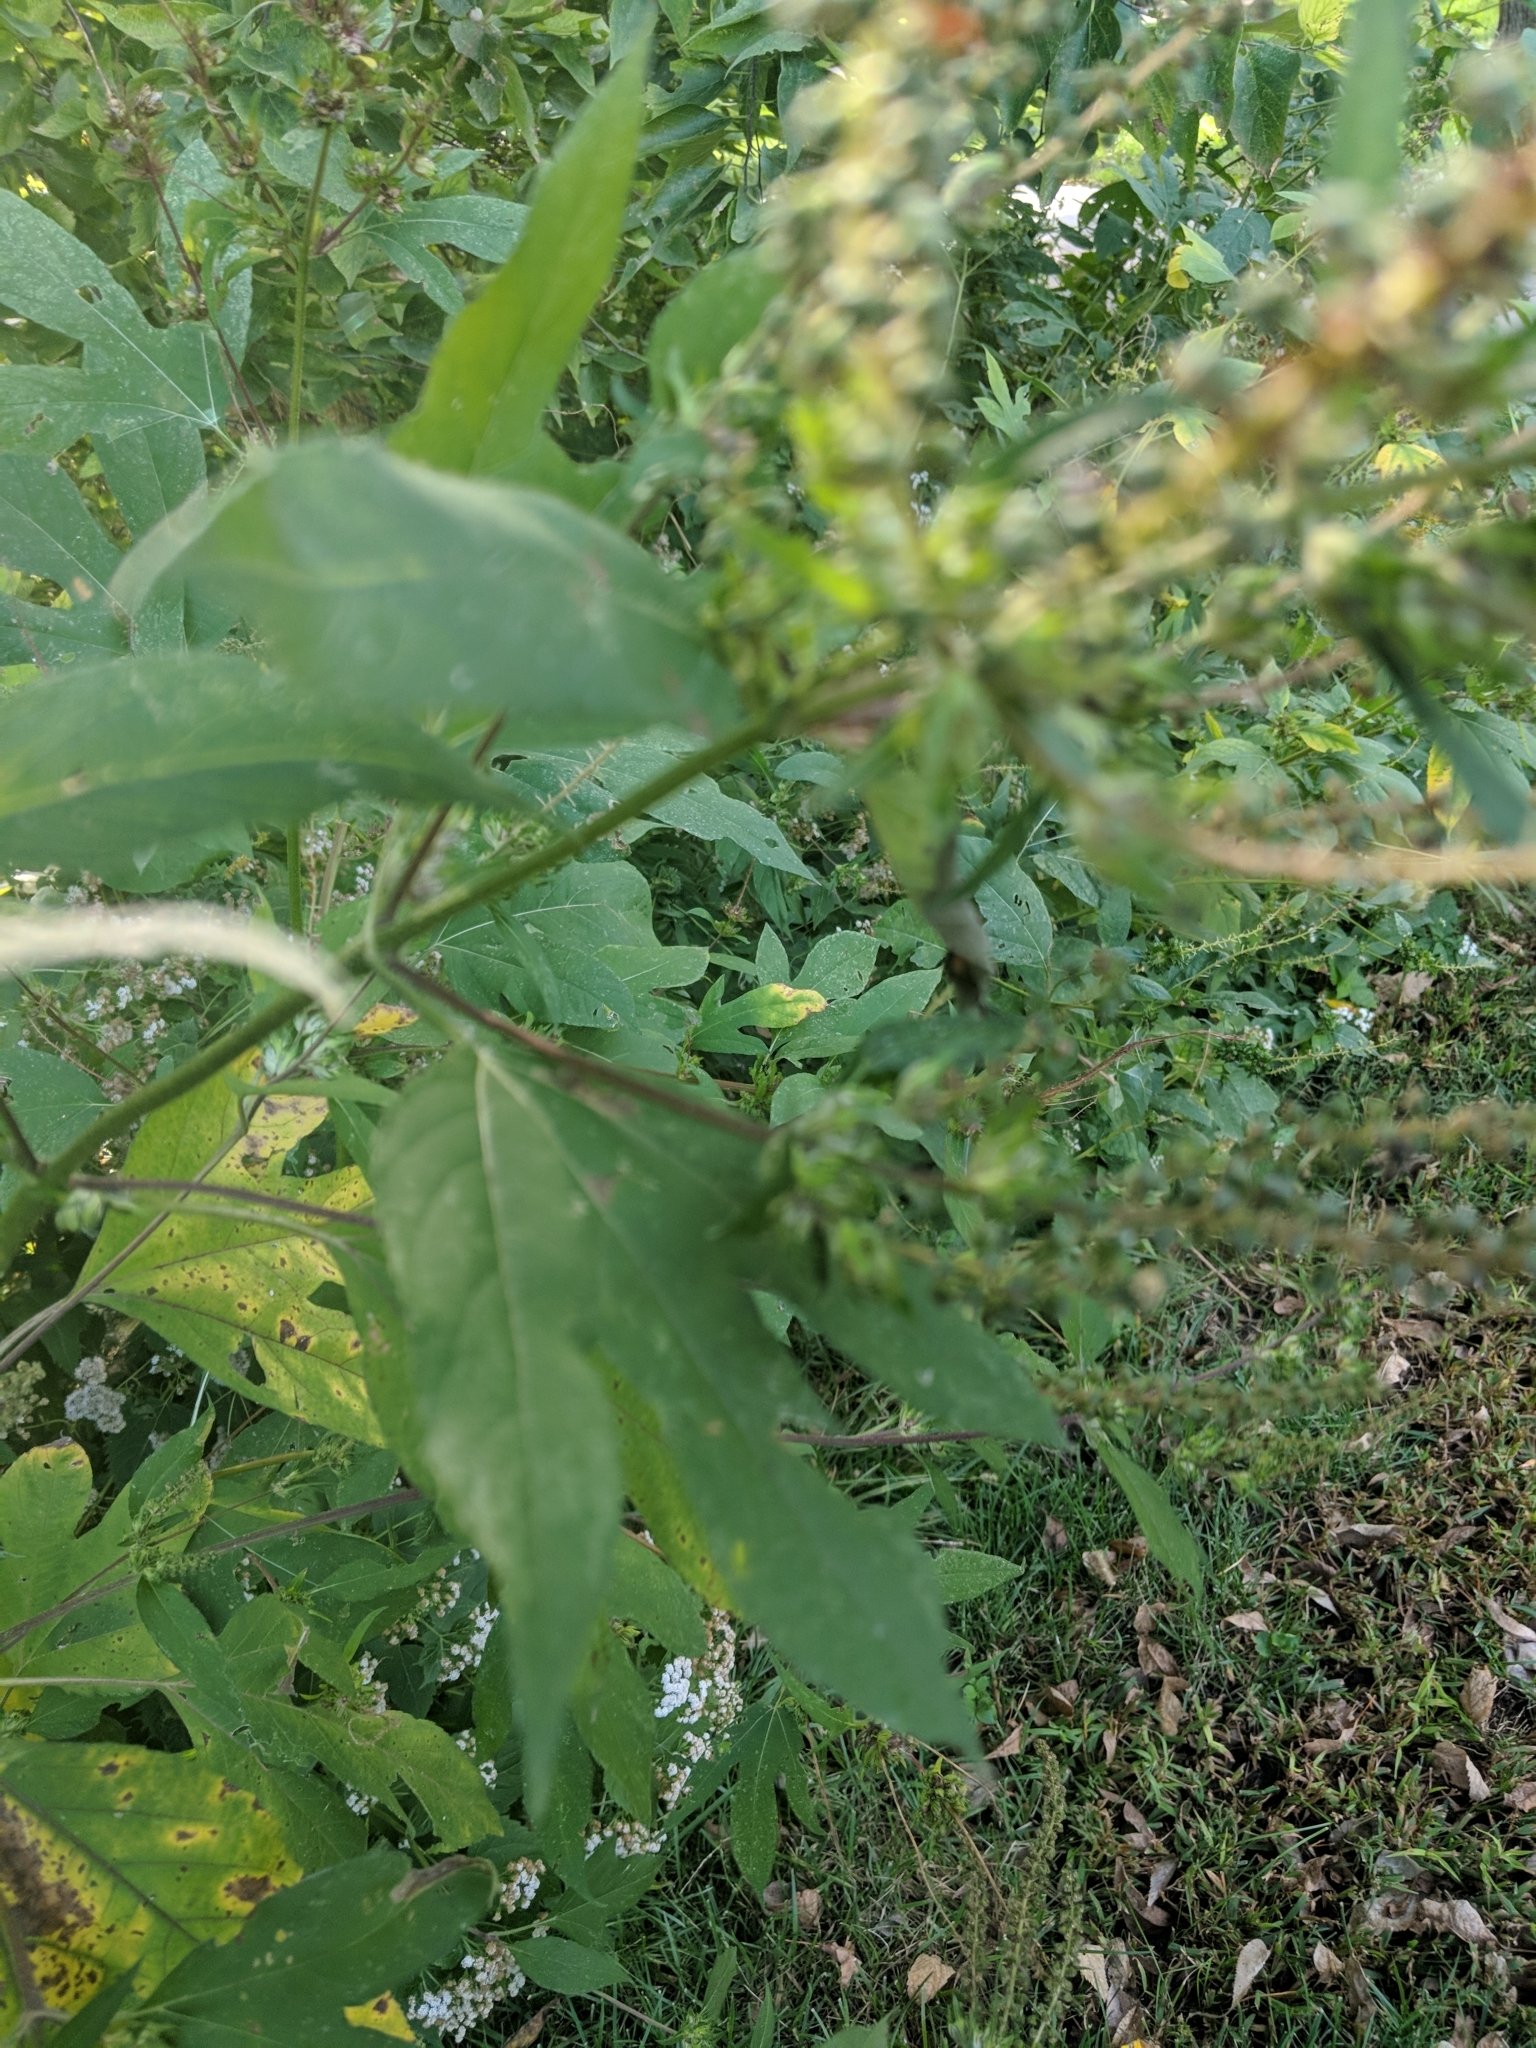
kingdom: Plantae
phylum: Tracheophyta
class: Magnoliopsida
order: Asterales
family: Asteraceae
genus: Ambrosia
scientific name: Ambrosia trifida
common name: Giant ragweed
